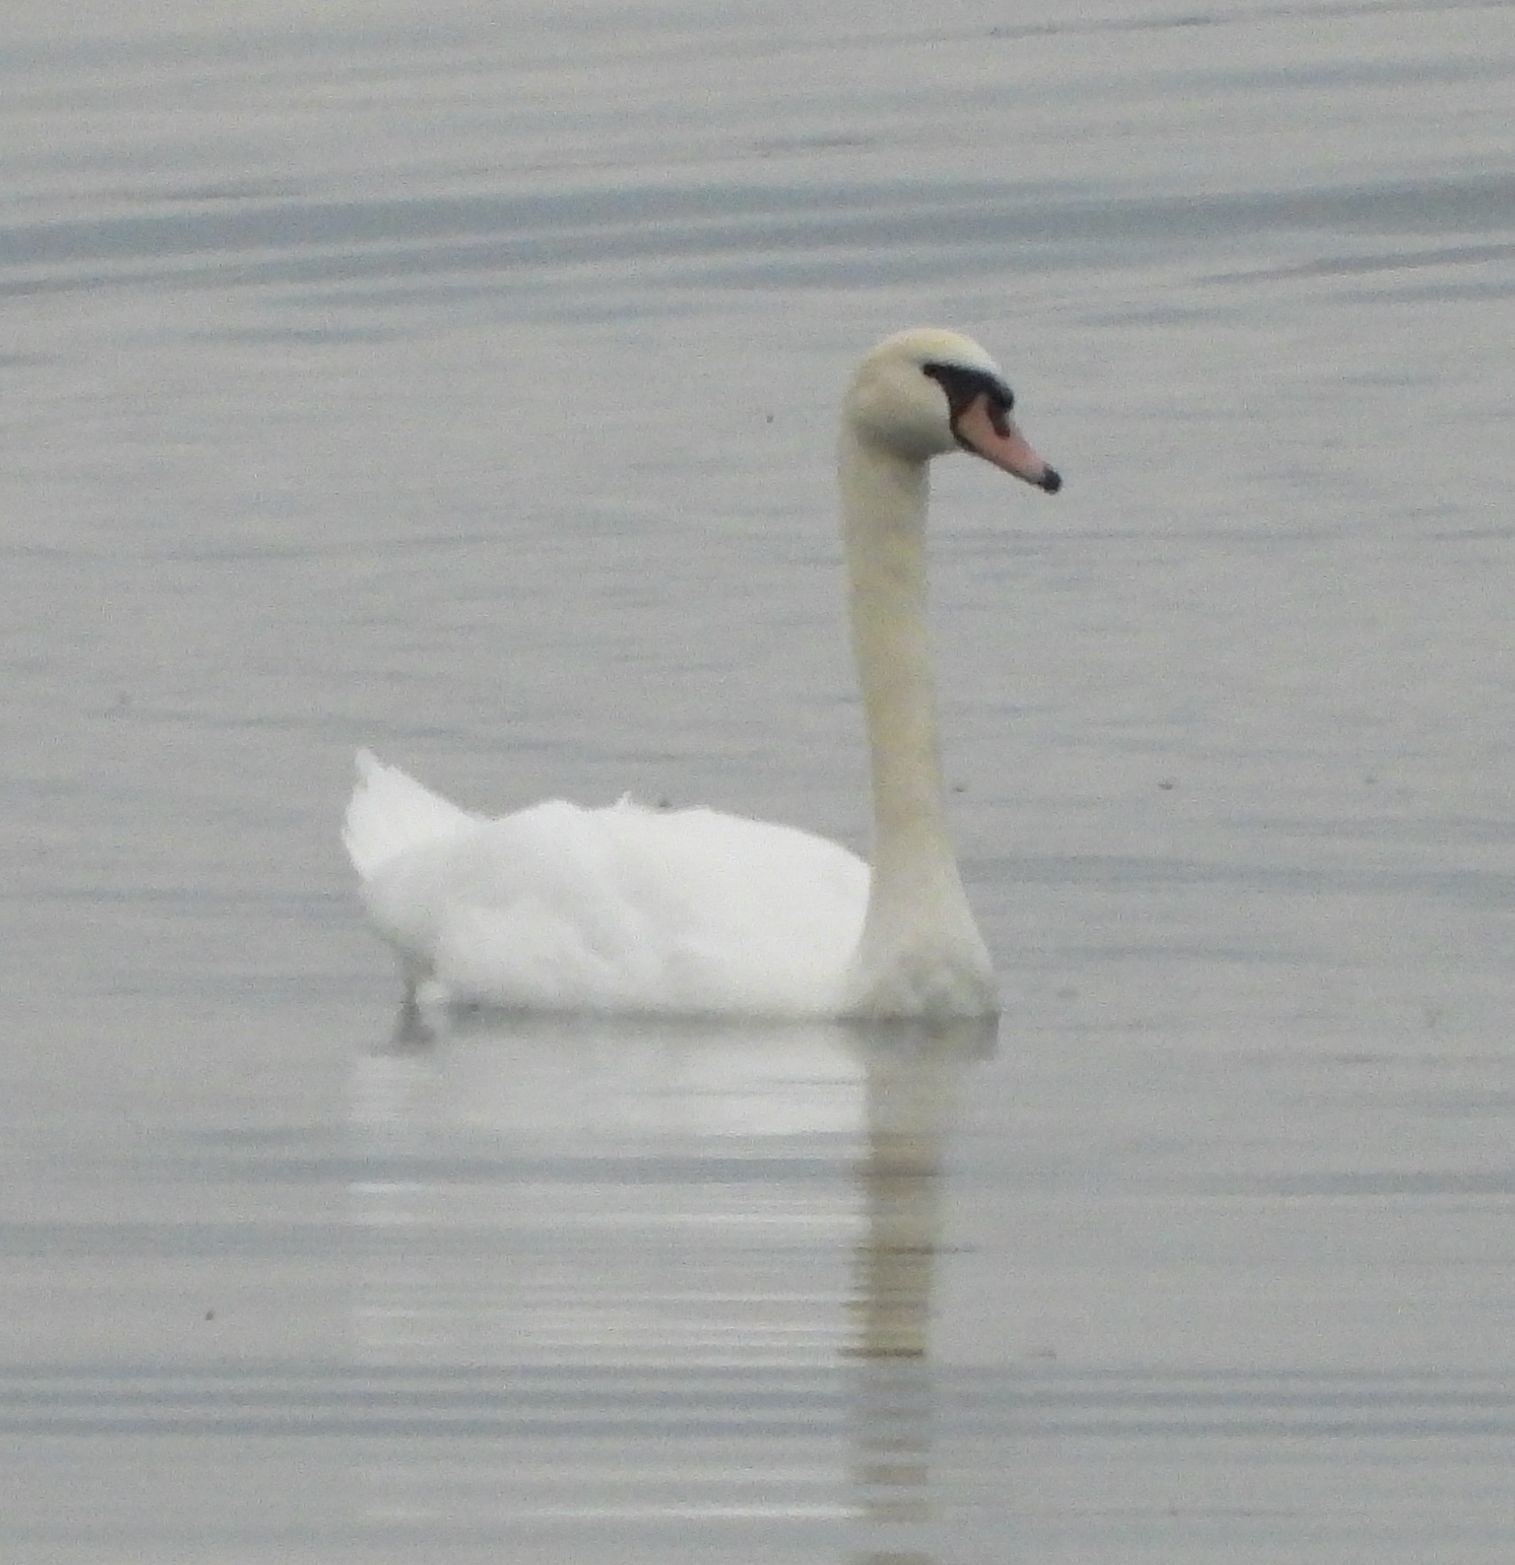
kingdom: Animalia
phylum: Chordata
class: Aves
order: Anseriformes
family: Anatidae
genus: Cygnus
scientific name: Cygnus olor
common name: Mute swan
